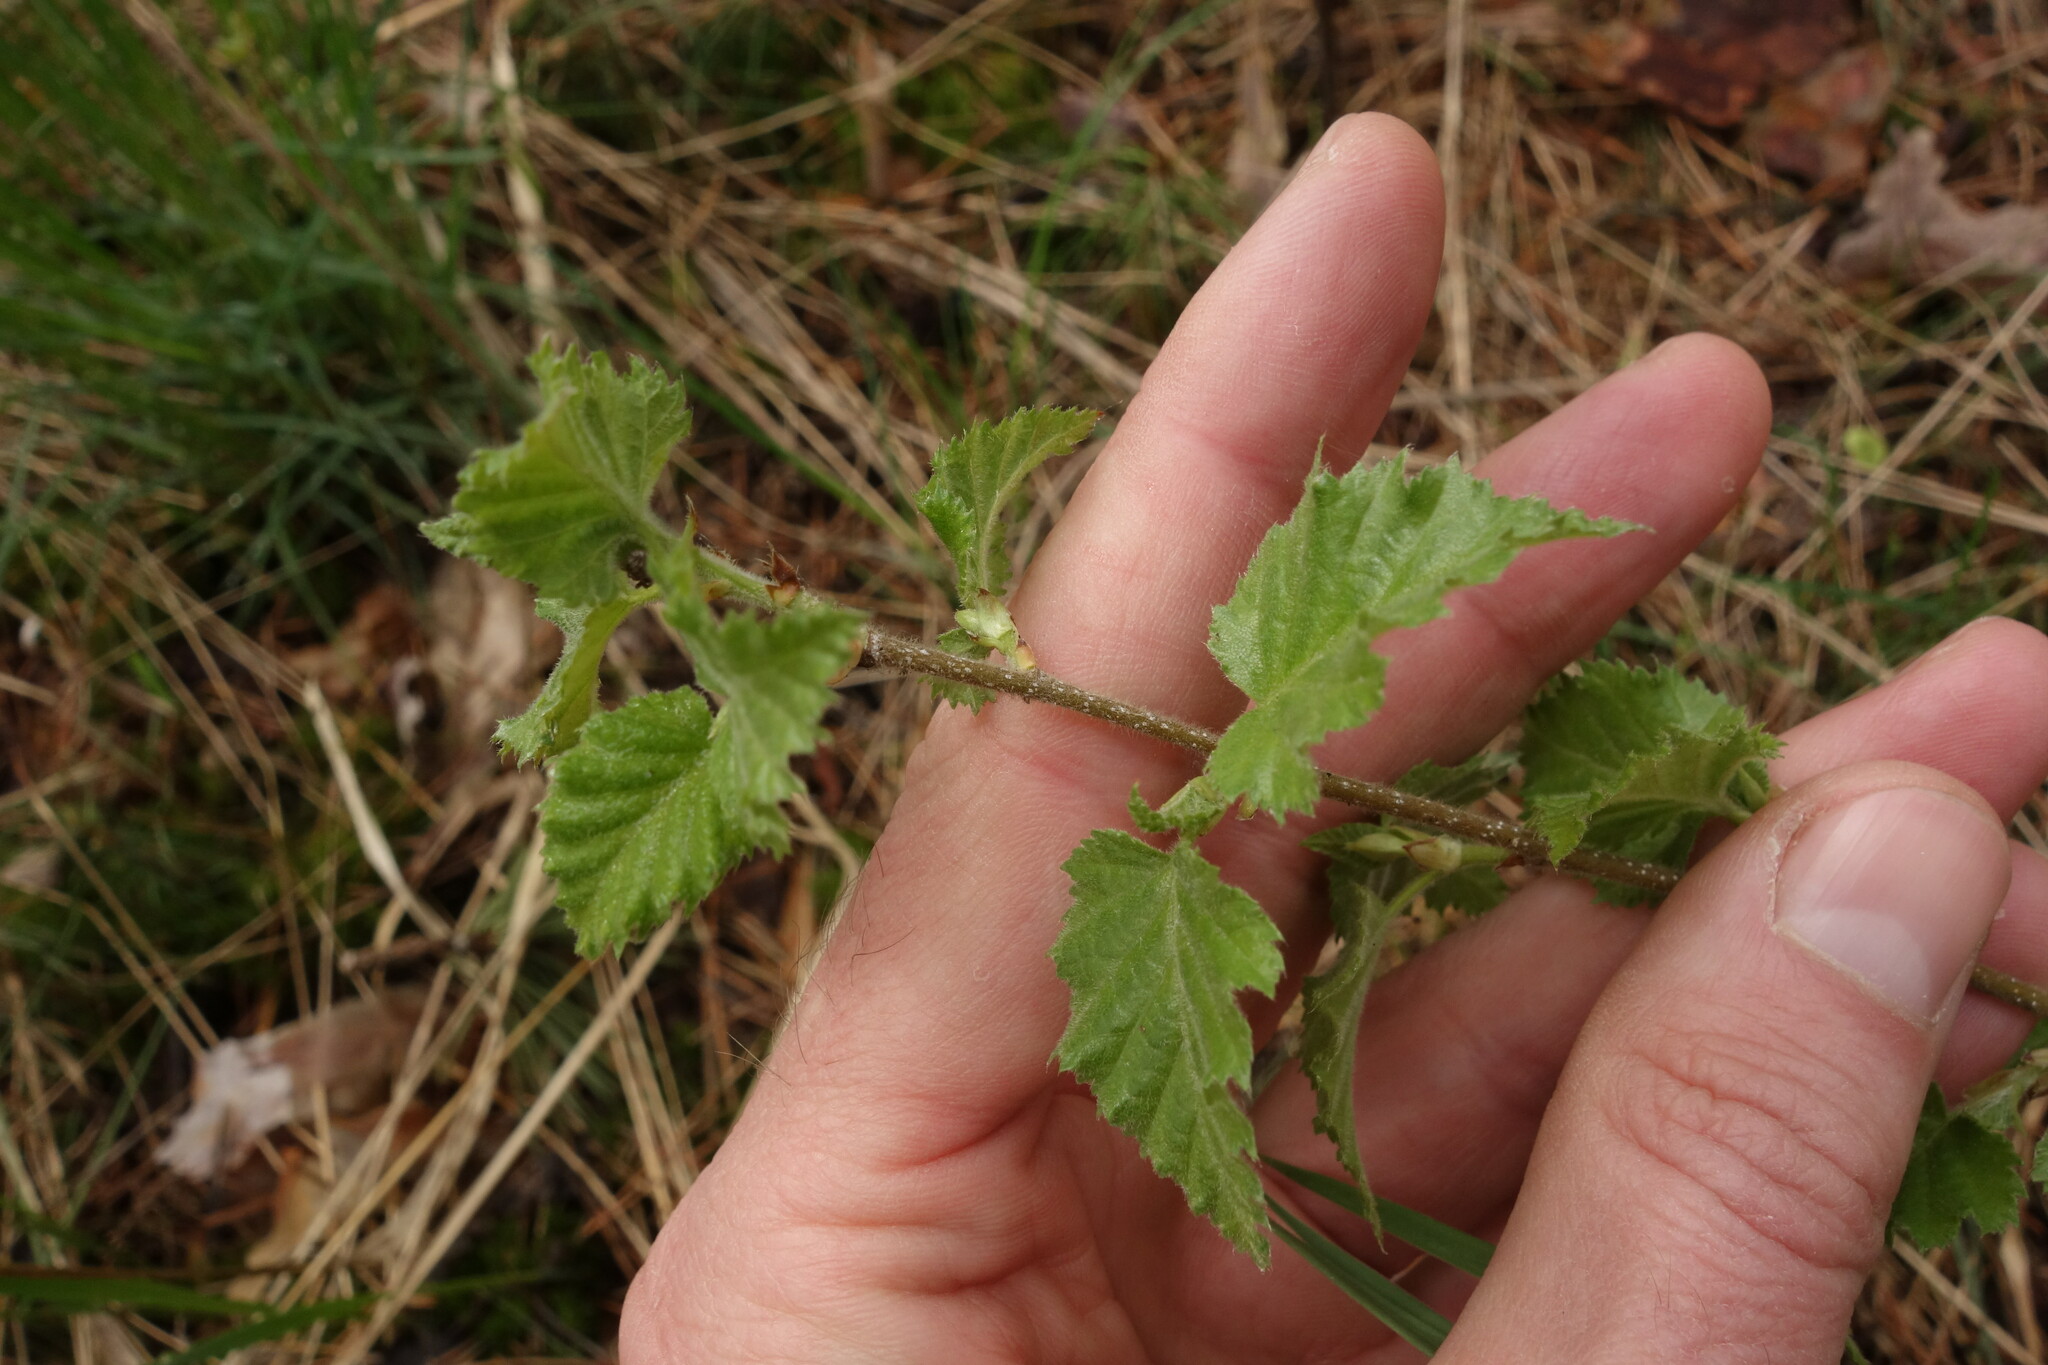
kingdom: Plantae
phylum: Tracheophyta
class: Magnoliopsida
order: Fagales
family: Betulaceae
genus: Betula
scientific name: Betula pubescens
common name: Downy birch
